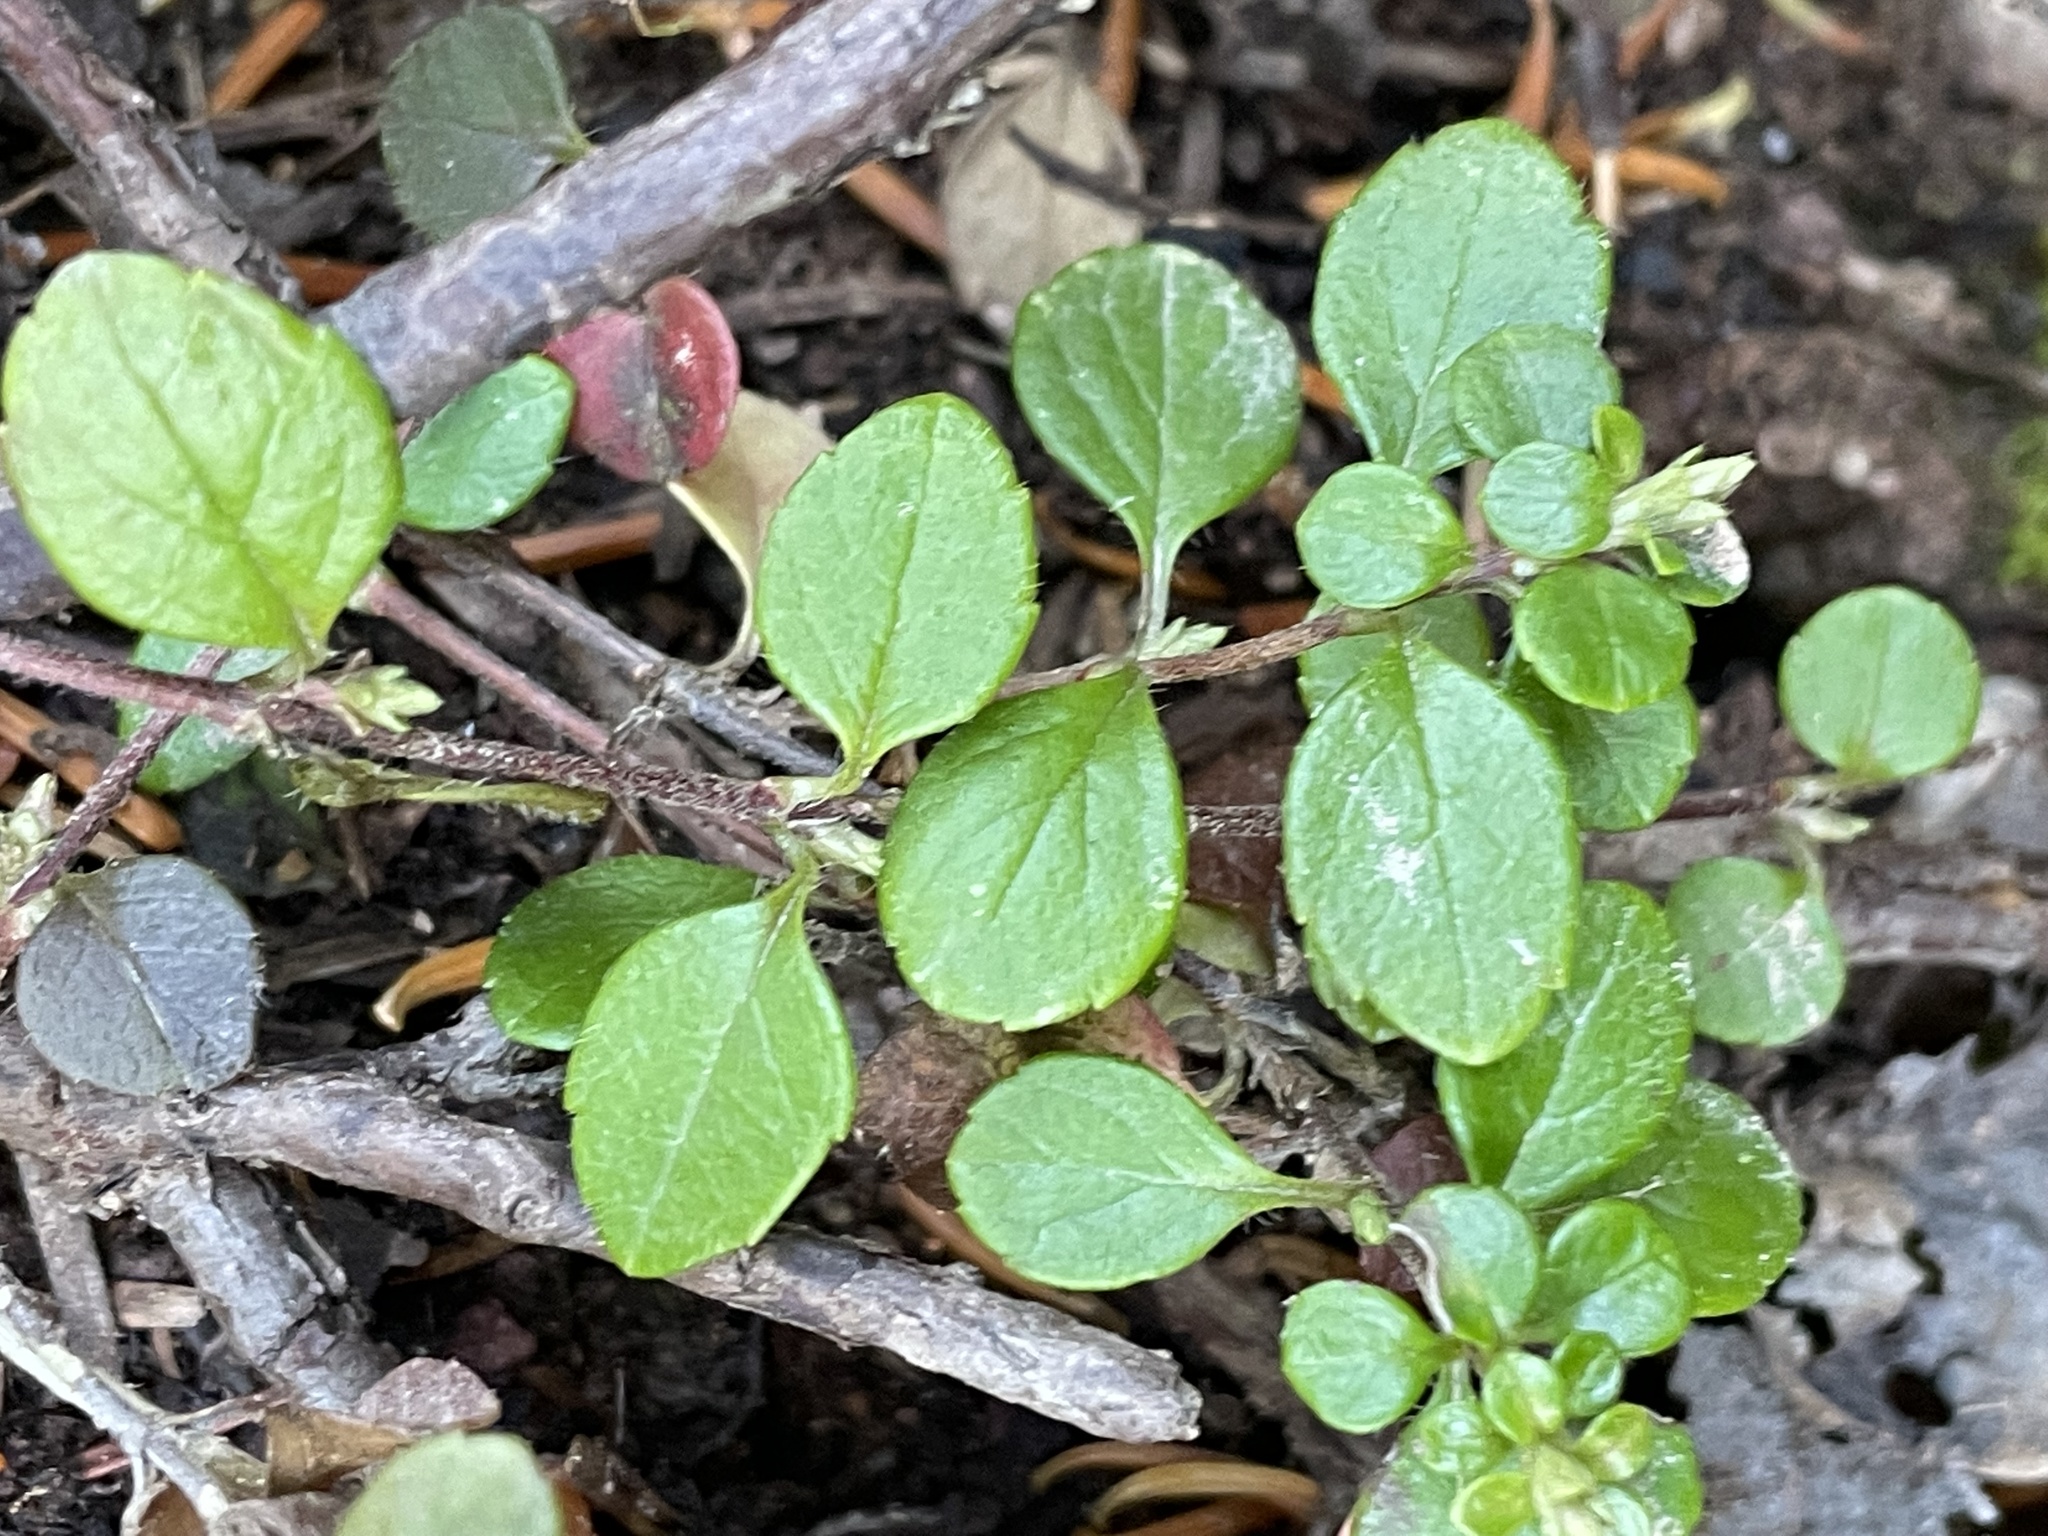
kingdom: Plantae
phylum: Tracheophyta
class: Magnoliopsida
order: Dipsacales
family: Caprifoliaceae
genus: Linnaea
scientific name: Linnaea borealis
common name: Twinflower
